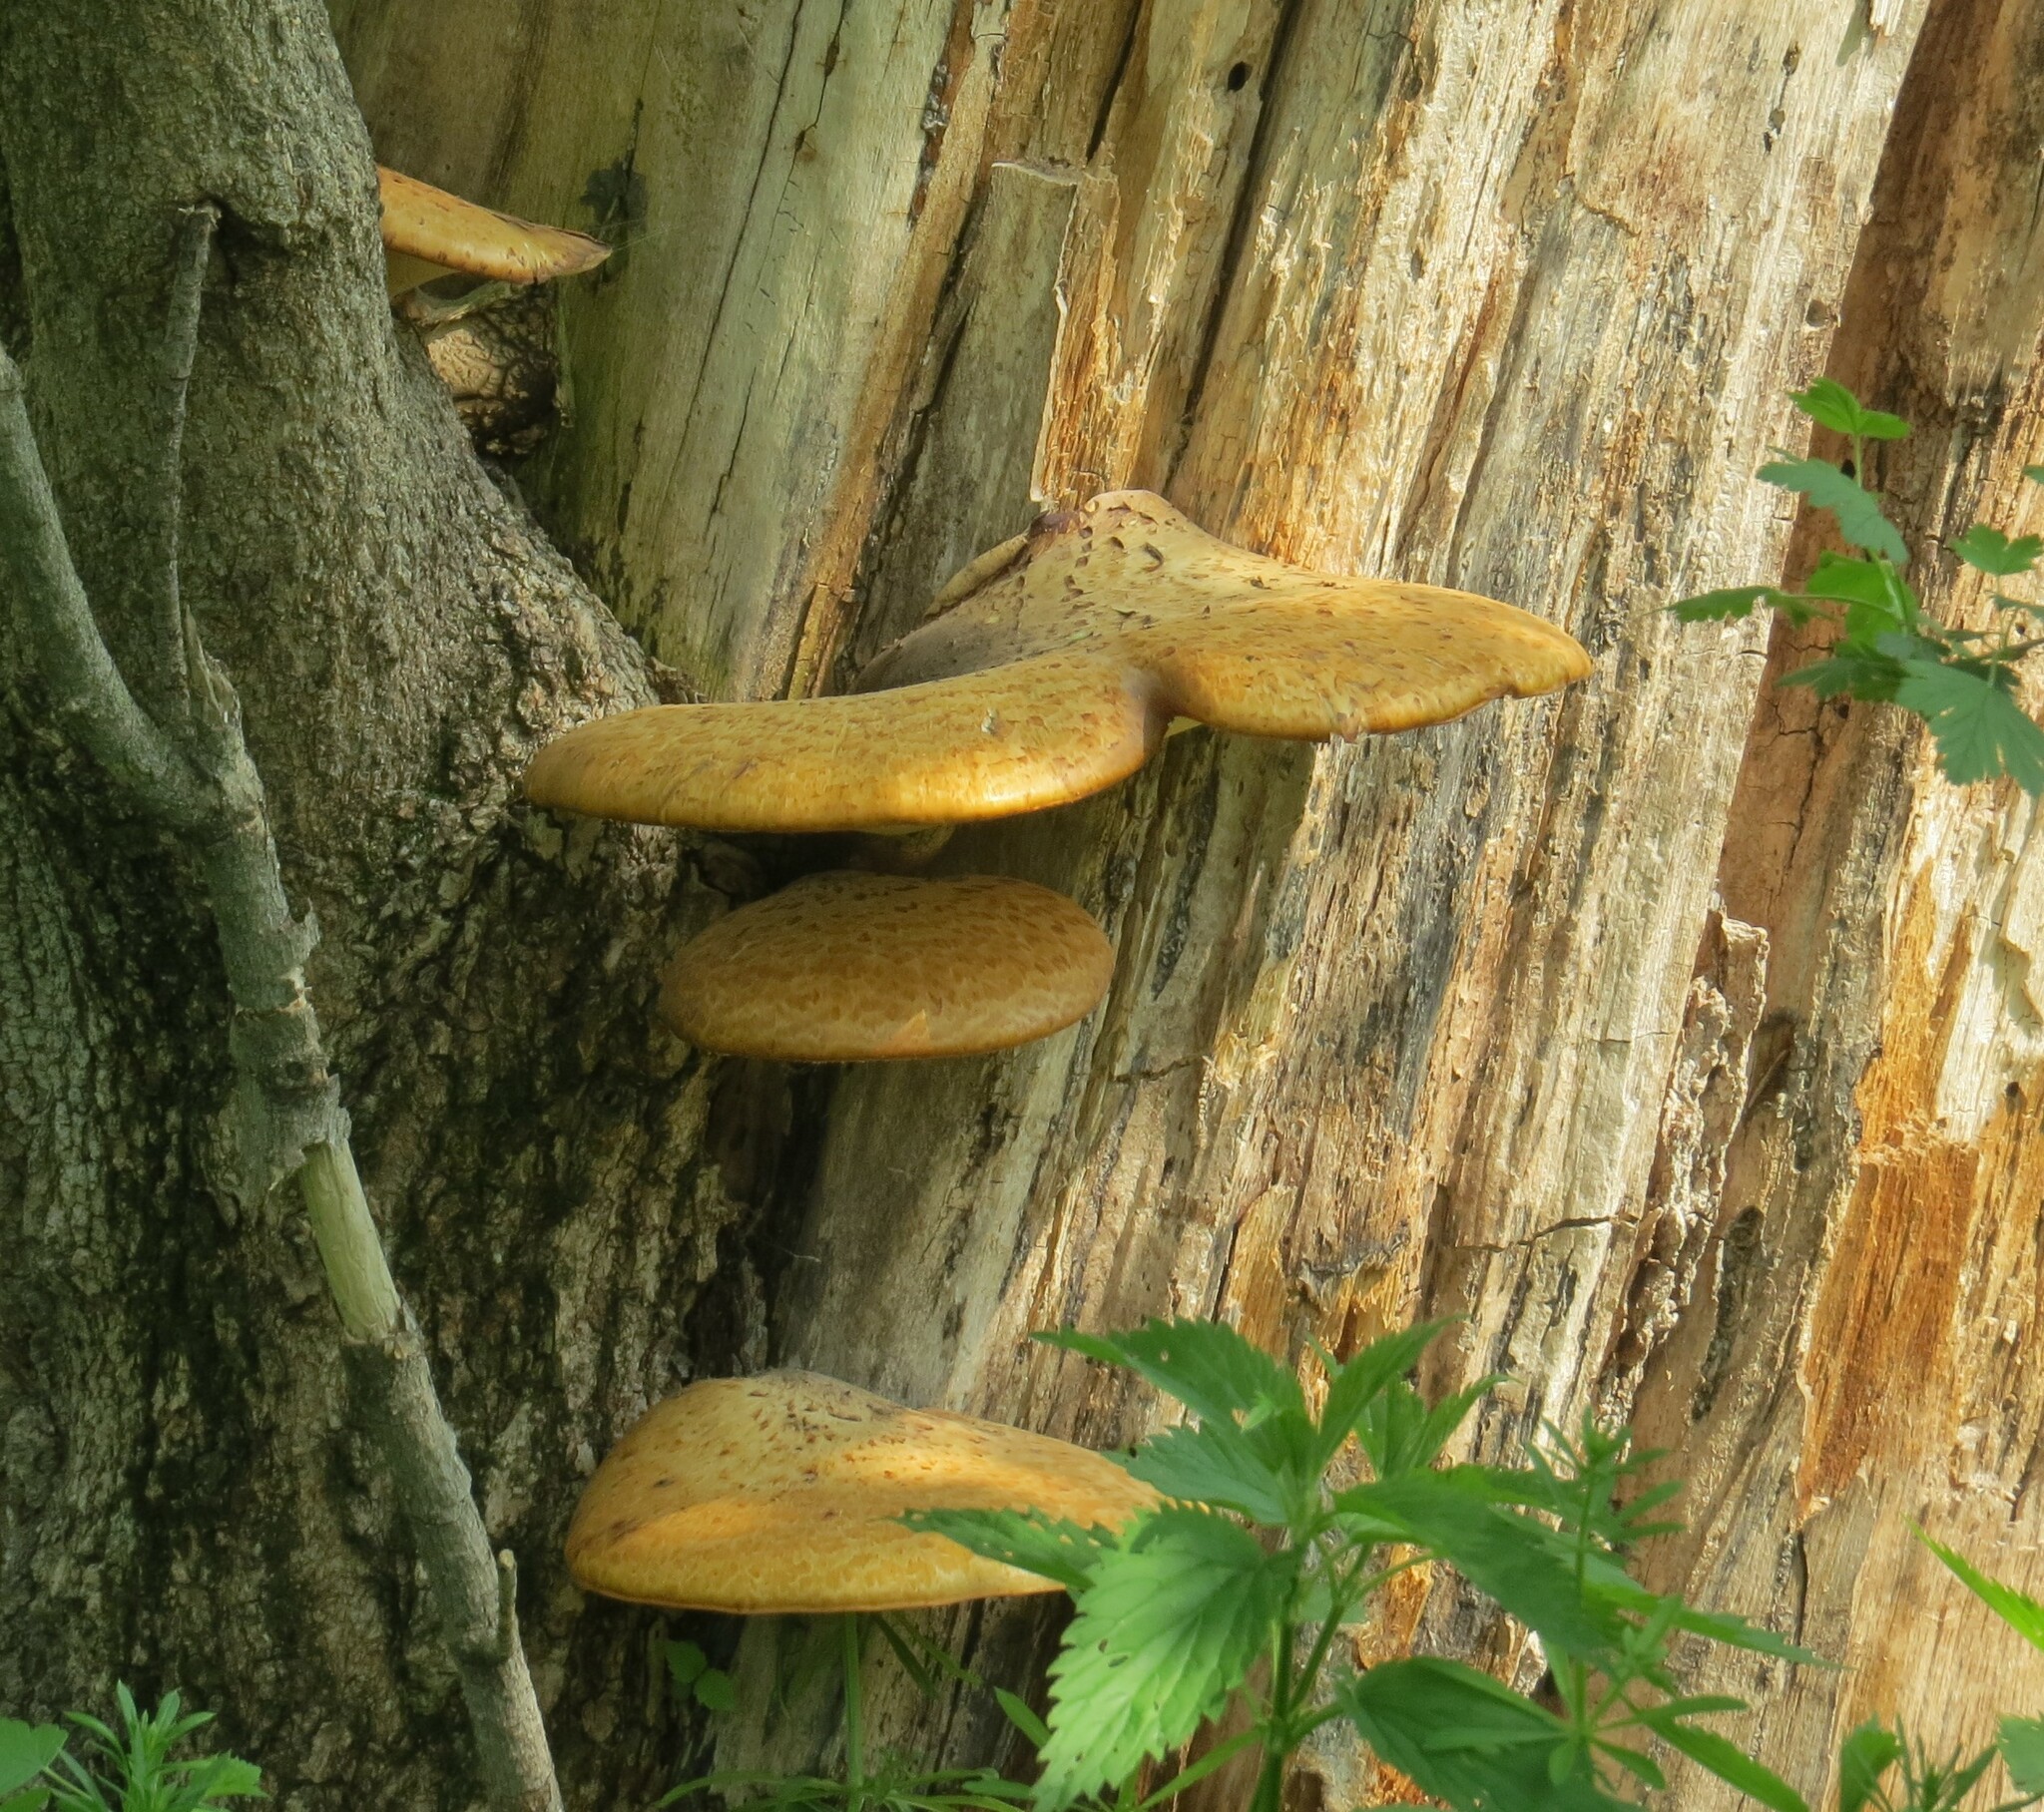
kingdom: Fungi
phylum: Basidiomycota
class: Agaricomycetes
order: Polyporales
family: Polyporaceae
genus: Cerioporus
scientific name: Cerioporus squamosus
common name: Dryad's saddle
